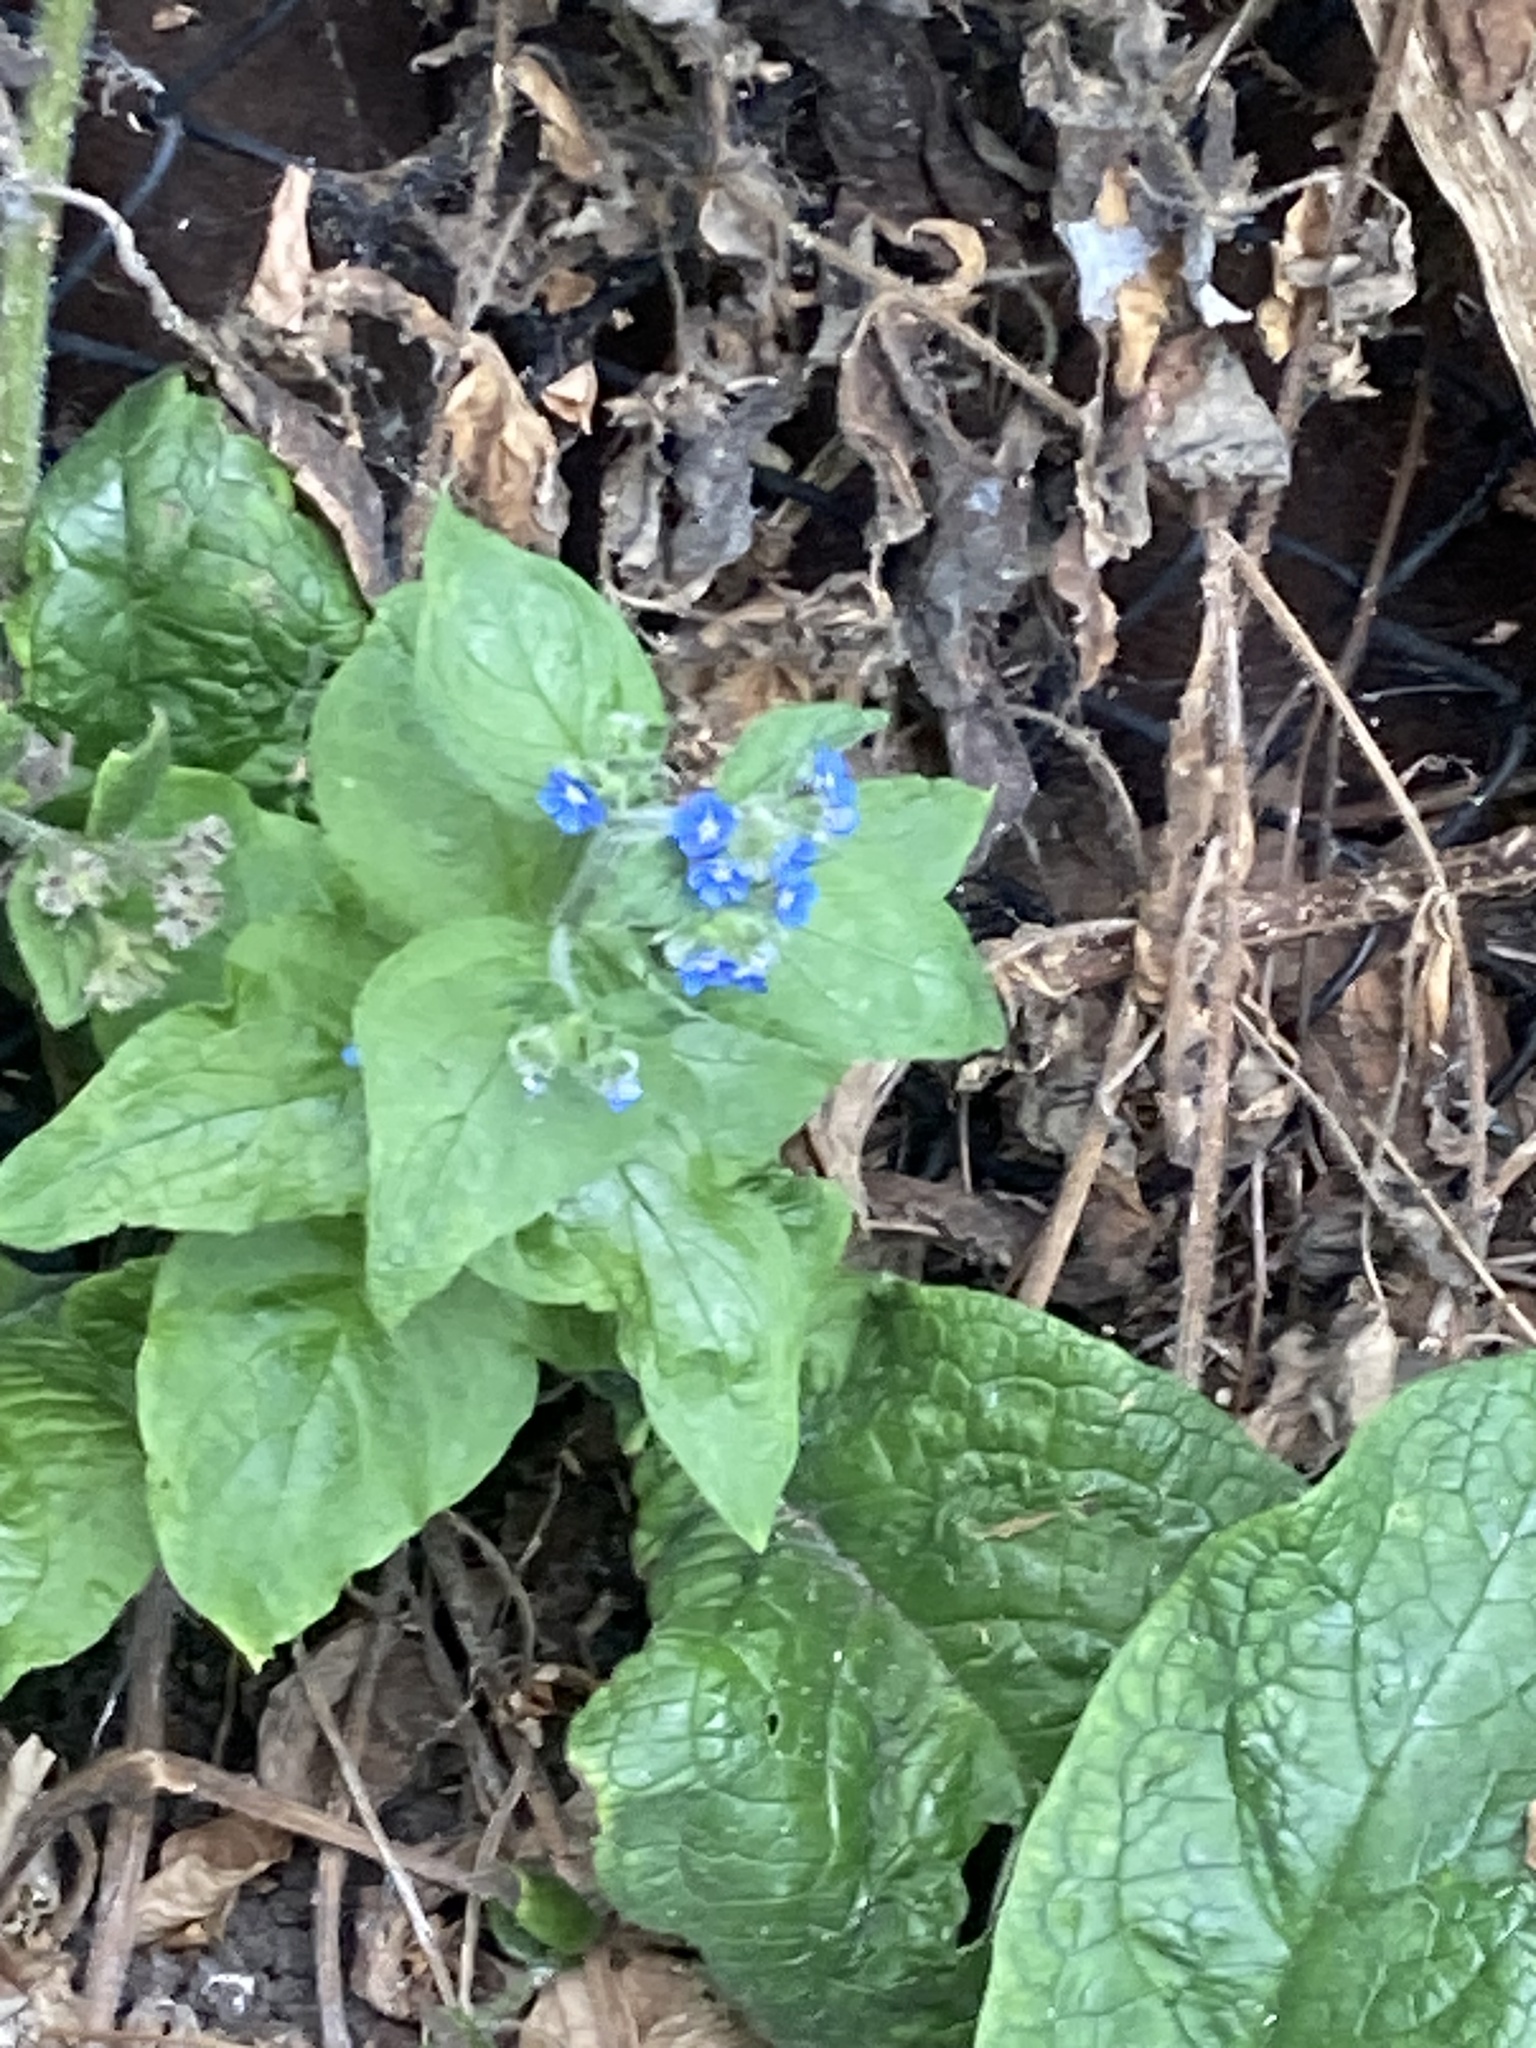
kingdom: Plantae
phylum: Tracheophyta
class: Magnoliopsida
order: Boraginales
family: Boraginaceae
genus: Pentaglottis
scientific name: Pentaglottis sempervirens
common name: Green alkanet
